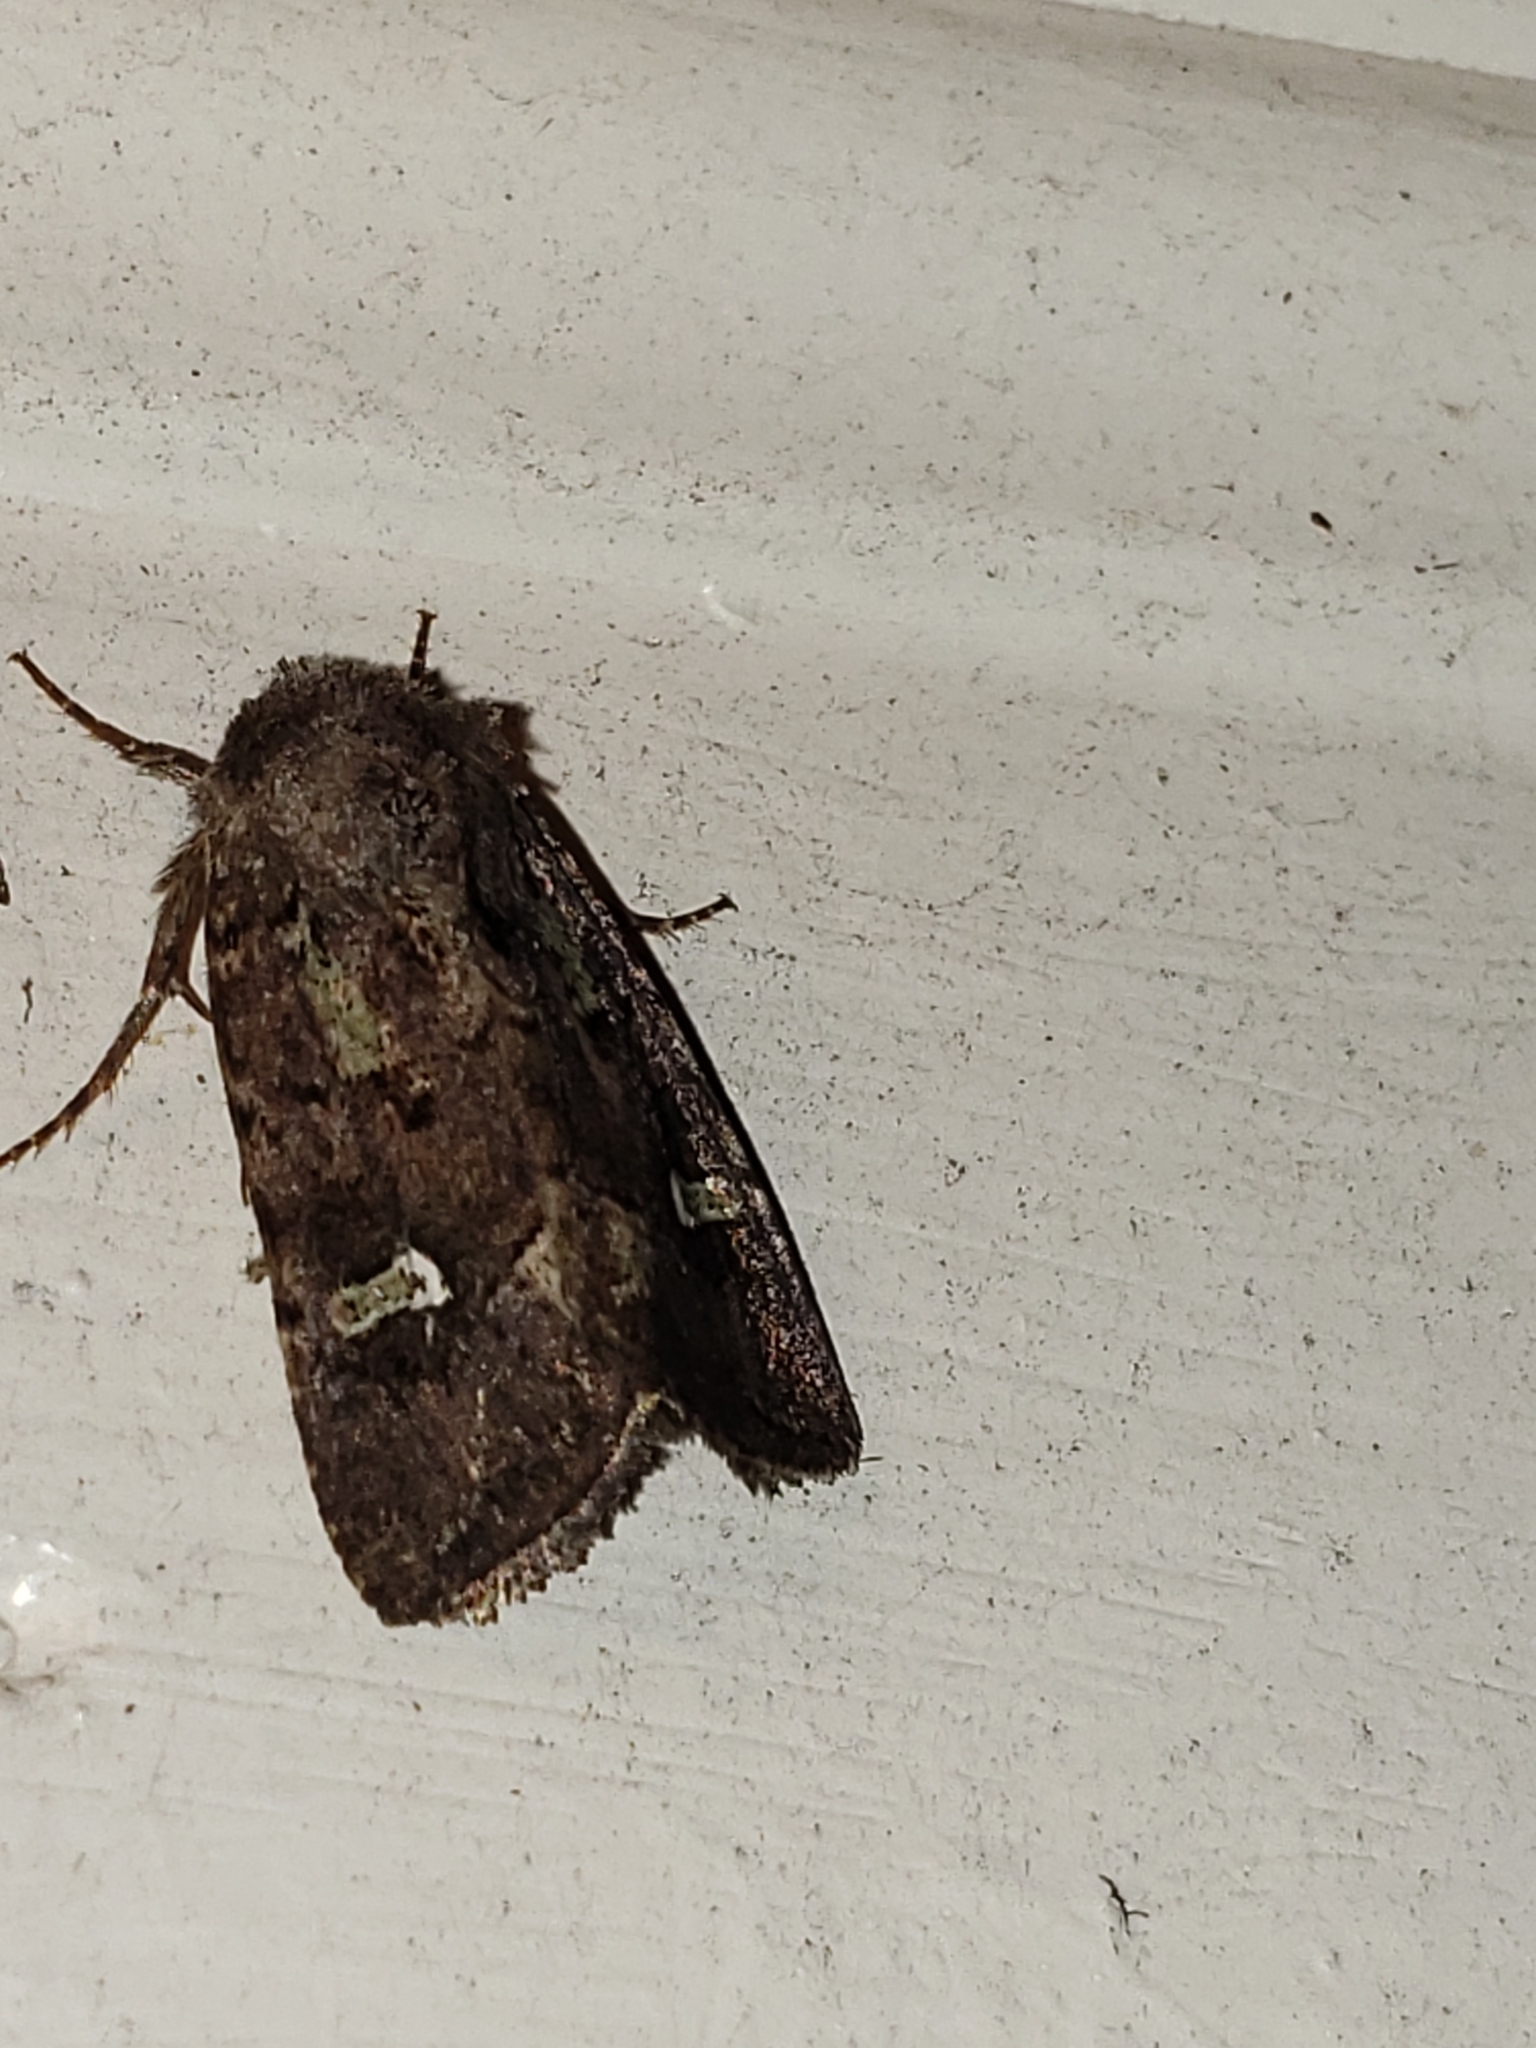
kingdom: Animalia
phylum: Arthropoda
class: Insecta
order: Lepidoptera
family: Noctuidae
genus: Lacinipolia
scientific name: Lacinipolia renigera
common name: Kidney-spotted minor
